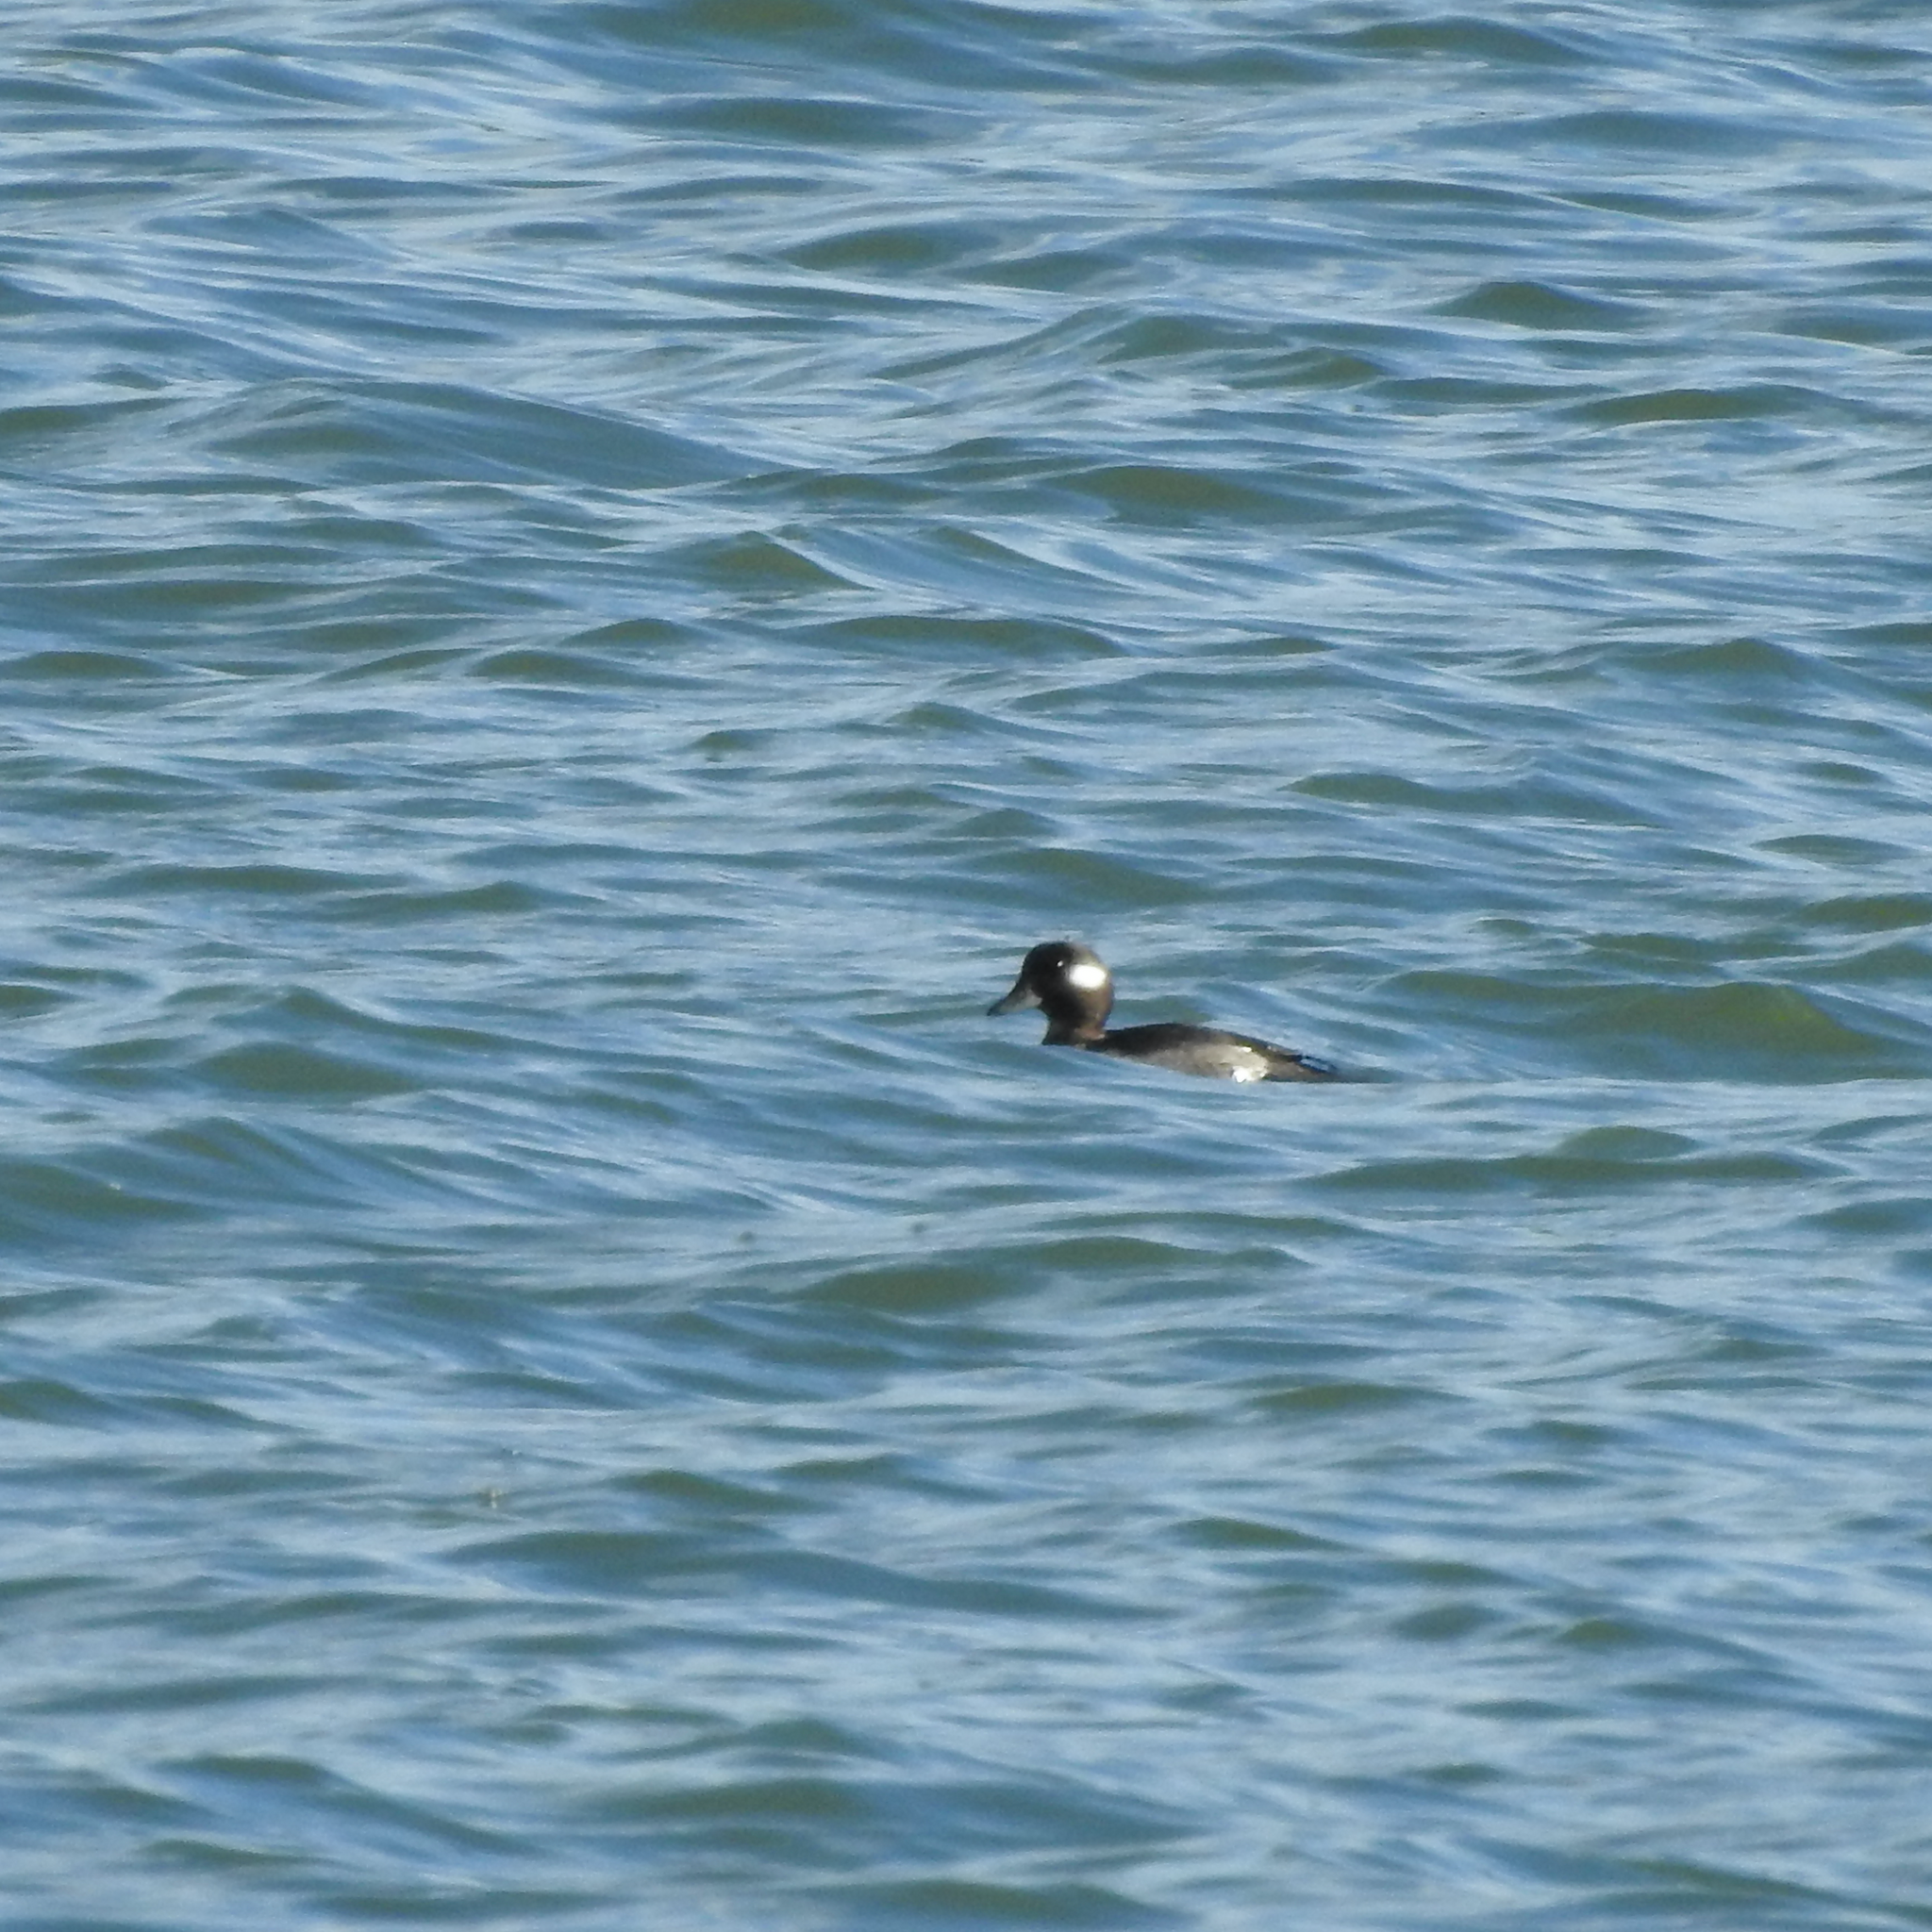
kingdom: Animalia
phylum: Chordata
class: Aves
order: Anseriformes
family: Anatidae
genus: Bucephala
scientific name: Bucephala albeola
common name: Bufflehead
